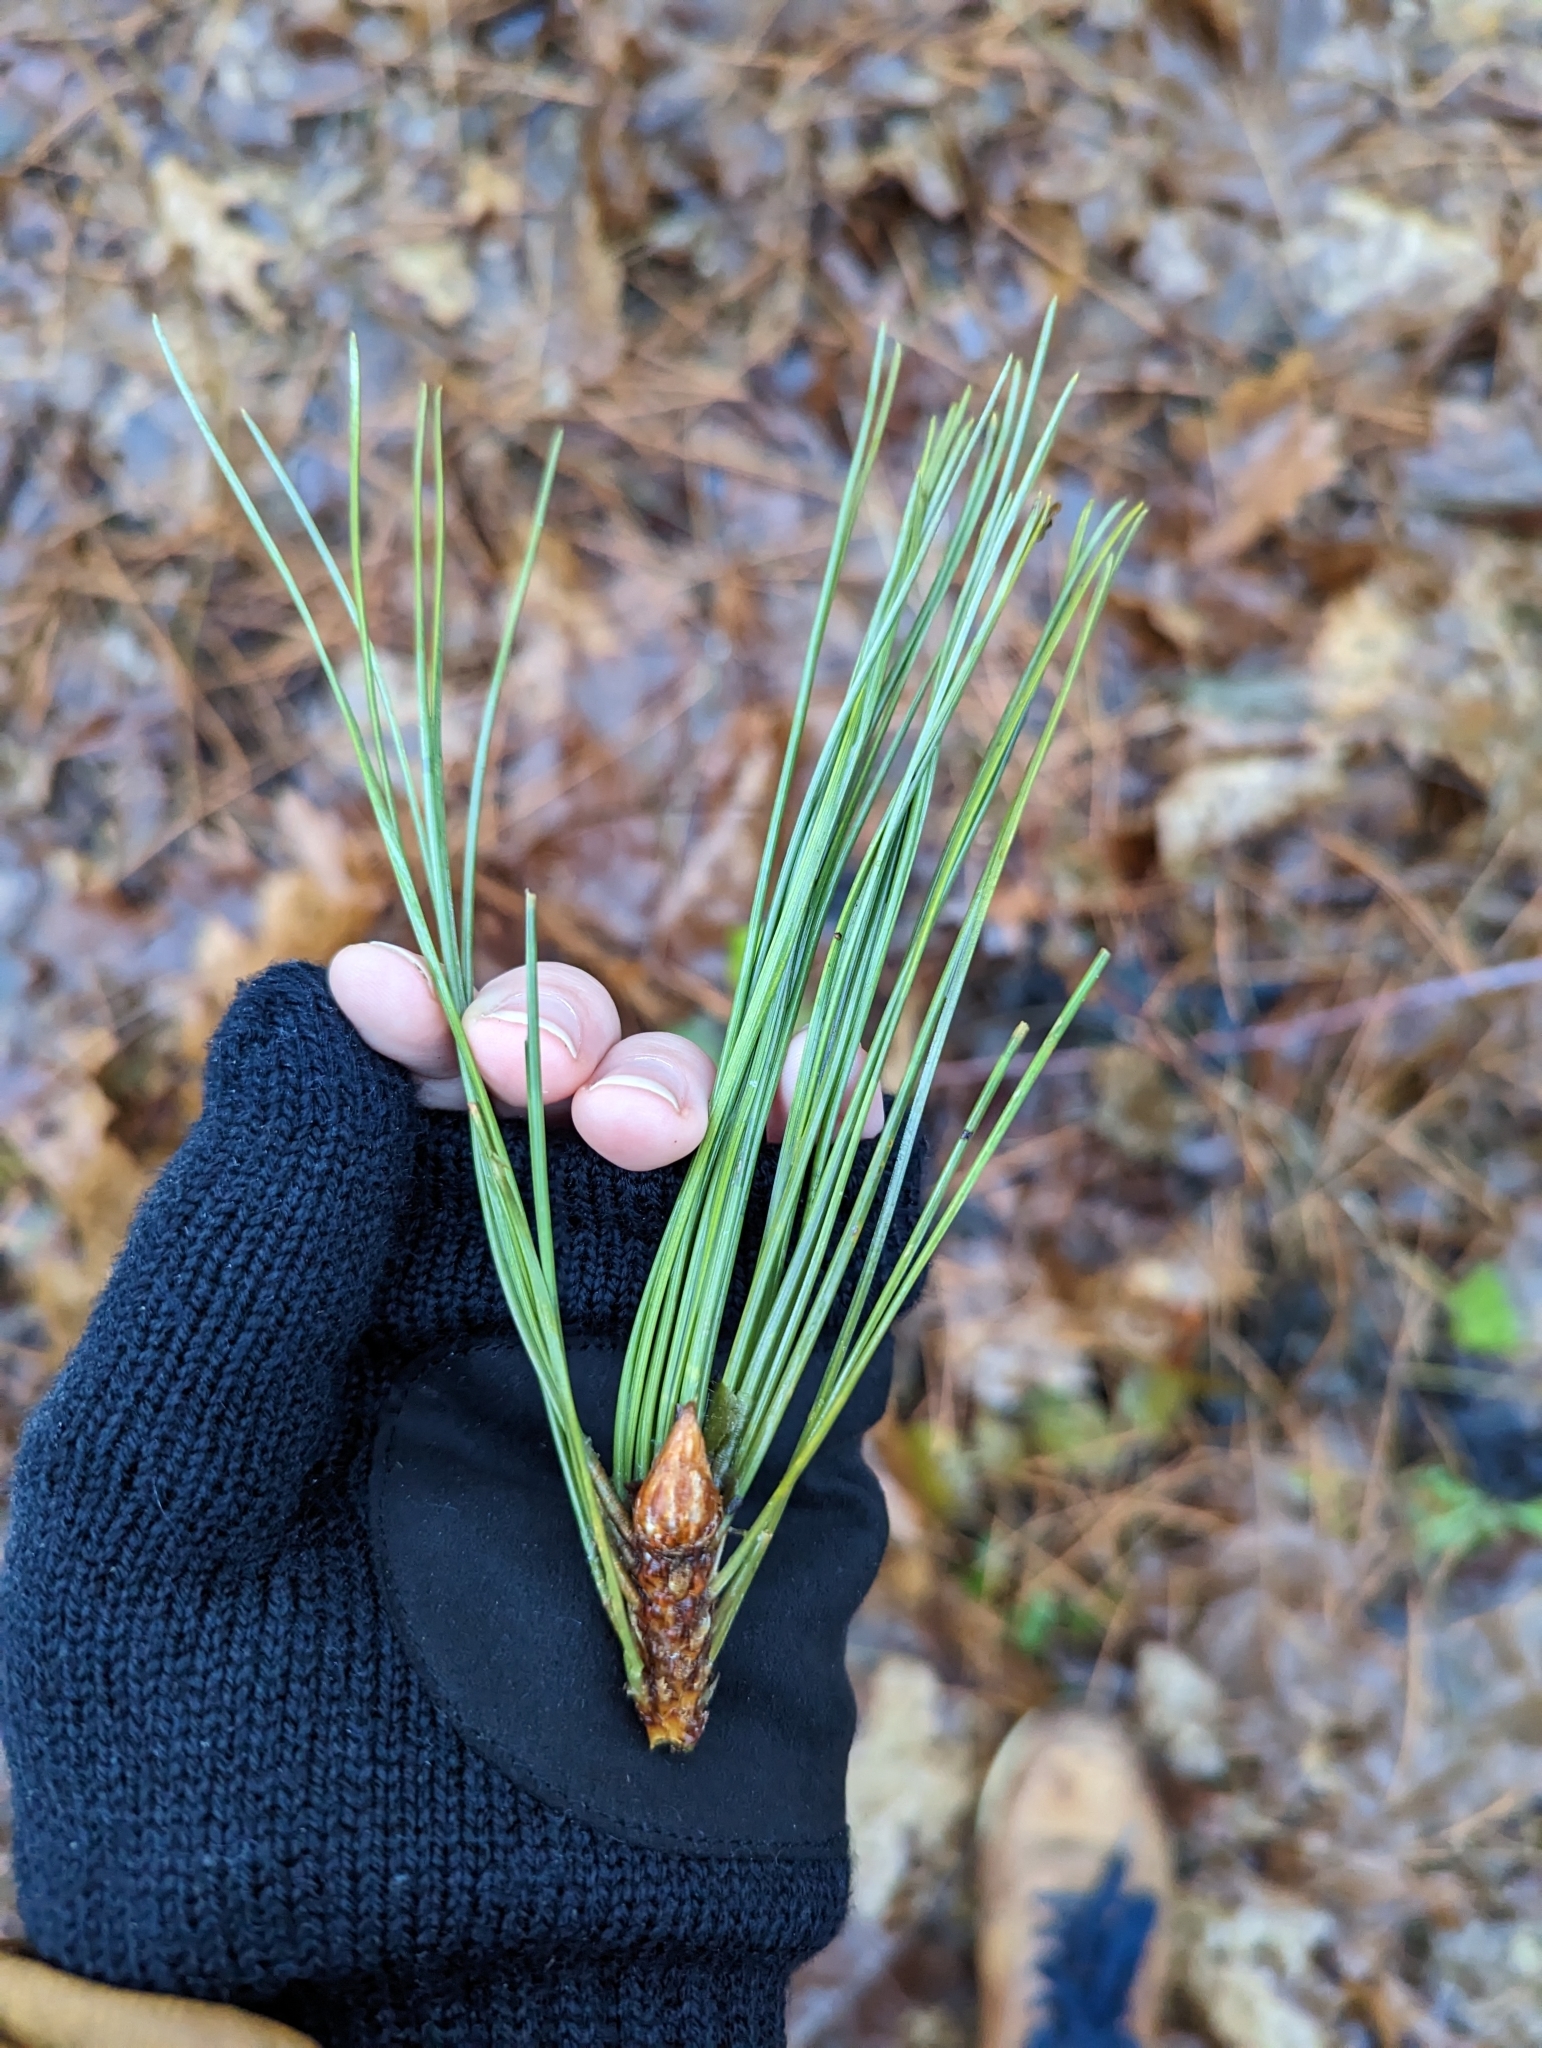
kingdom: Plantae
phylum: Tracheophyta
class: Pinopsida
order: Pinales
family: Pinaceae
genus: Pinus
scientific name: Pinus resinosa
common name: Norway pine
